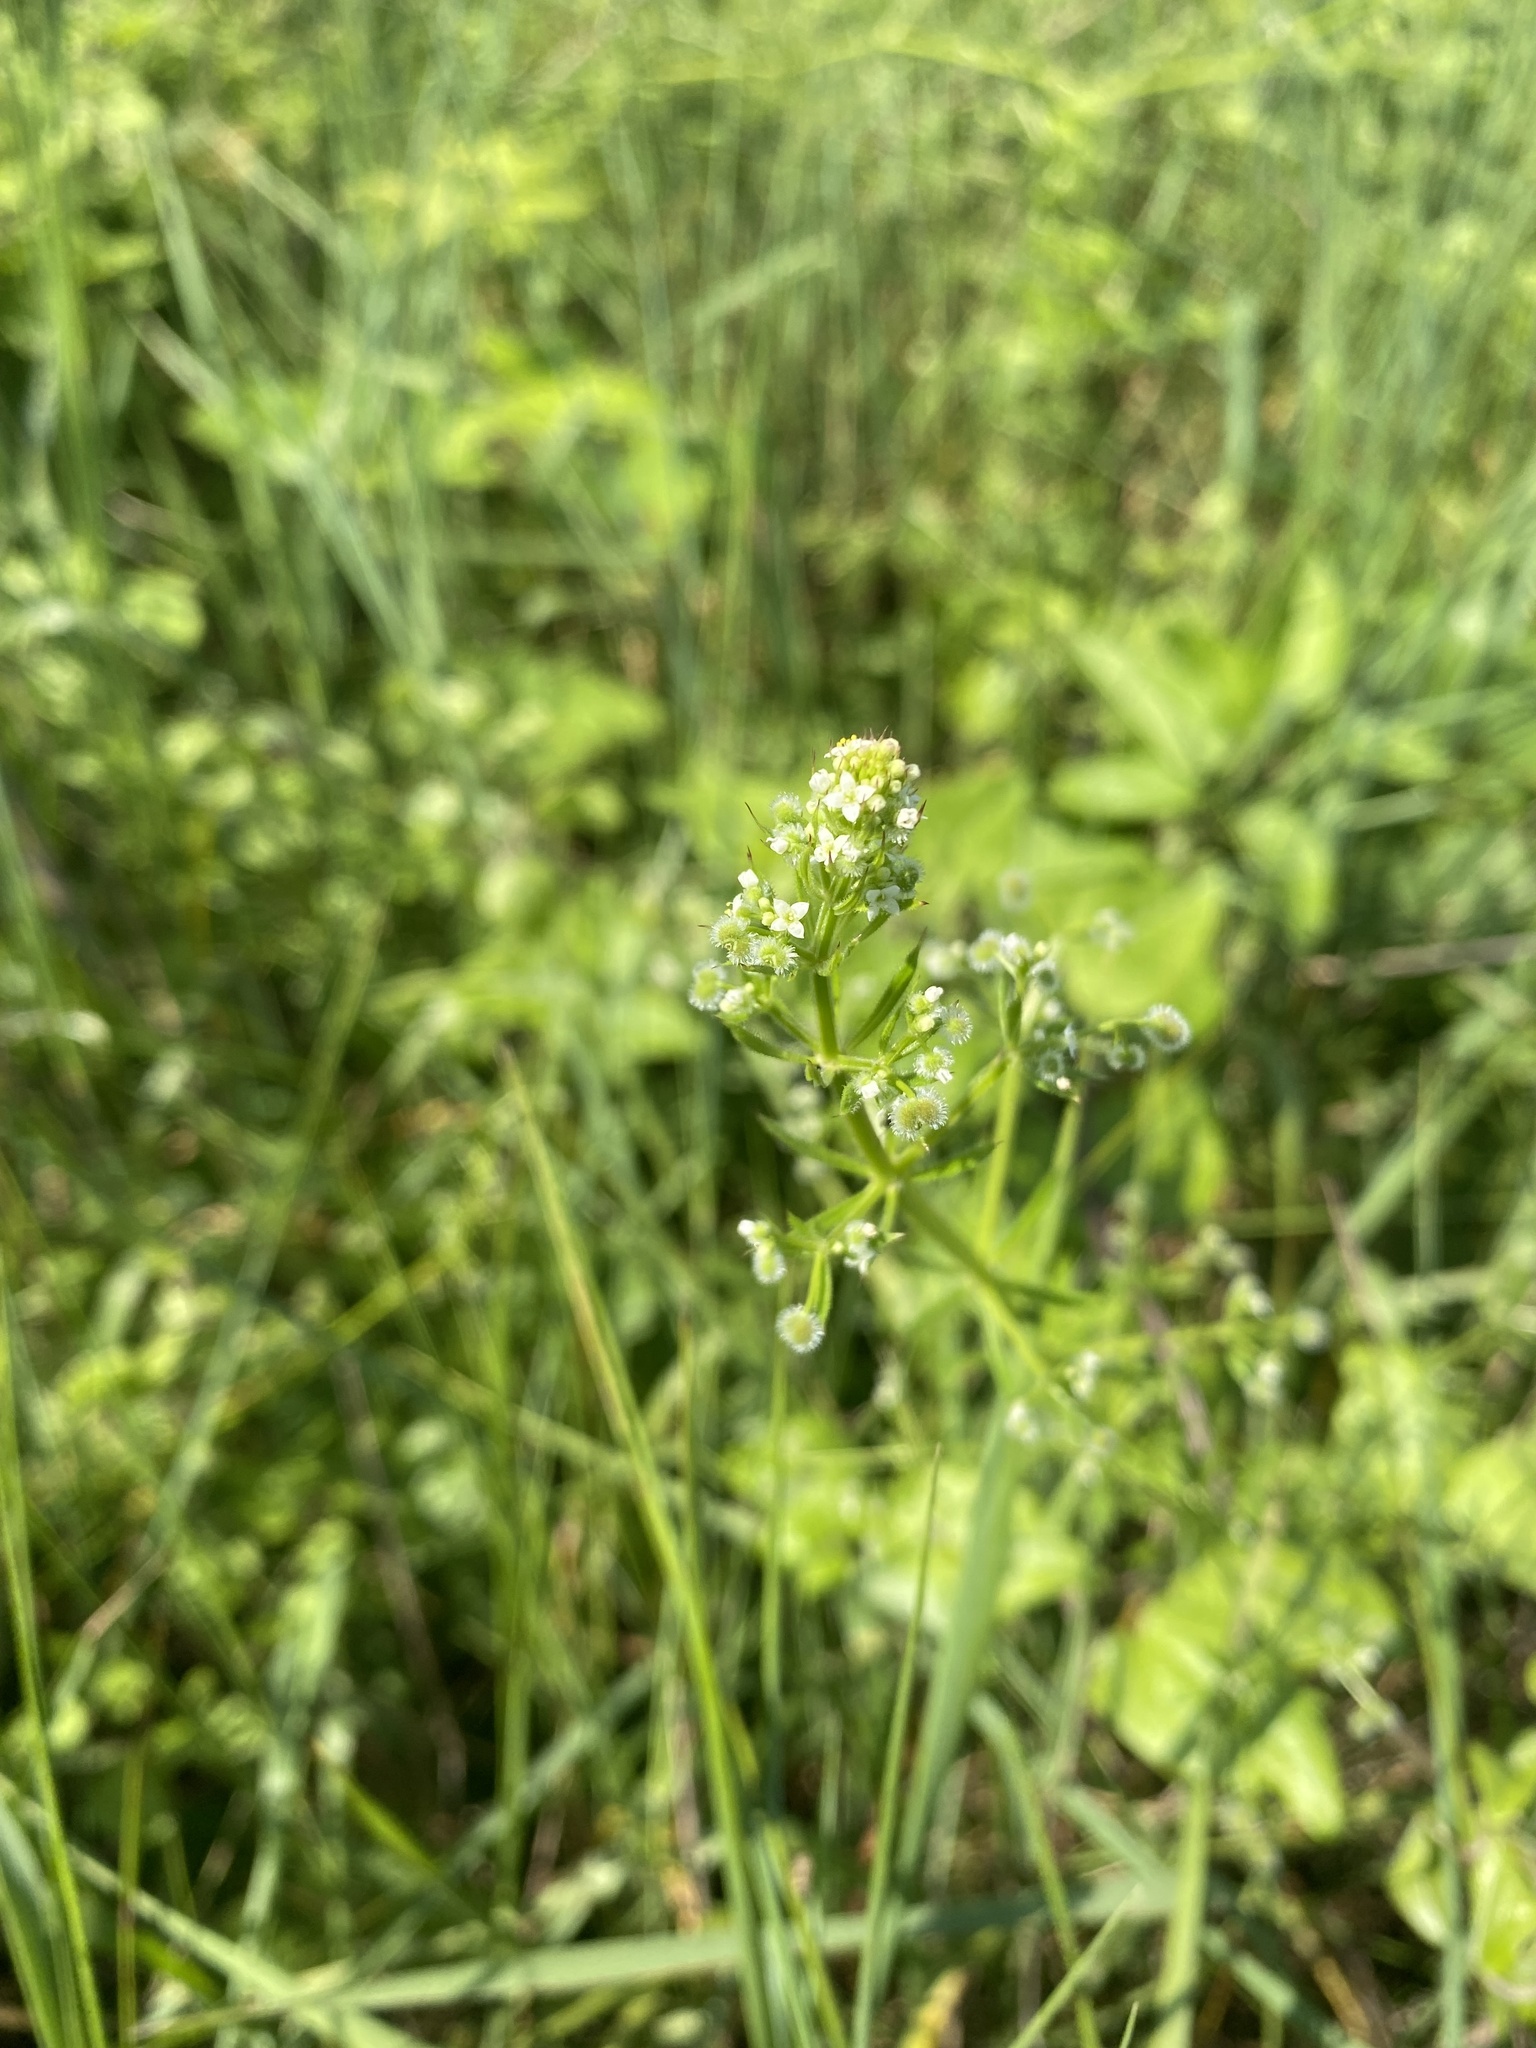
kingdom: Plantae
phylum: Tracheophyta
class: Magnoliopsida
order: Gentianales
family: Rubiaceae
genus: Galium
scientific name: Galium aparine
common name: Cleavers
